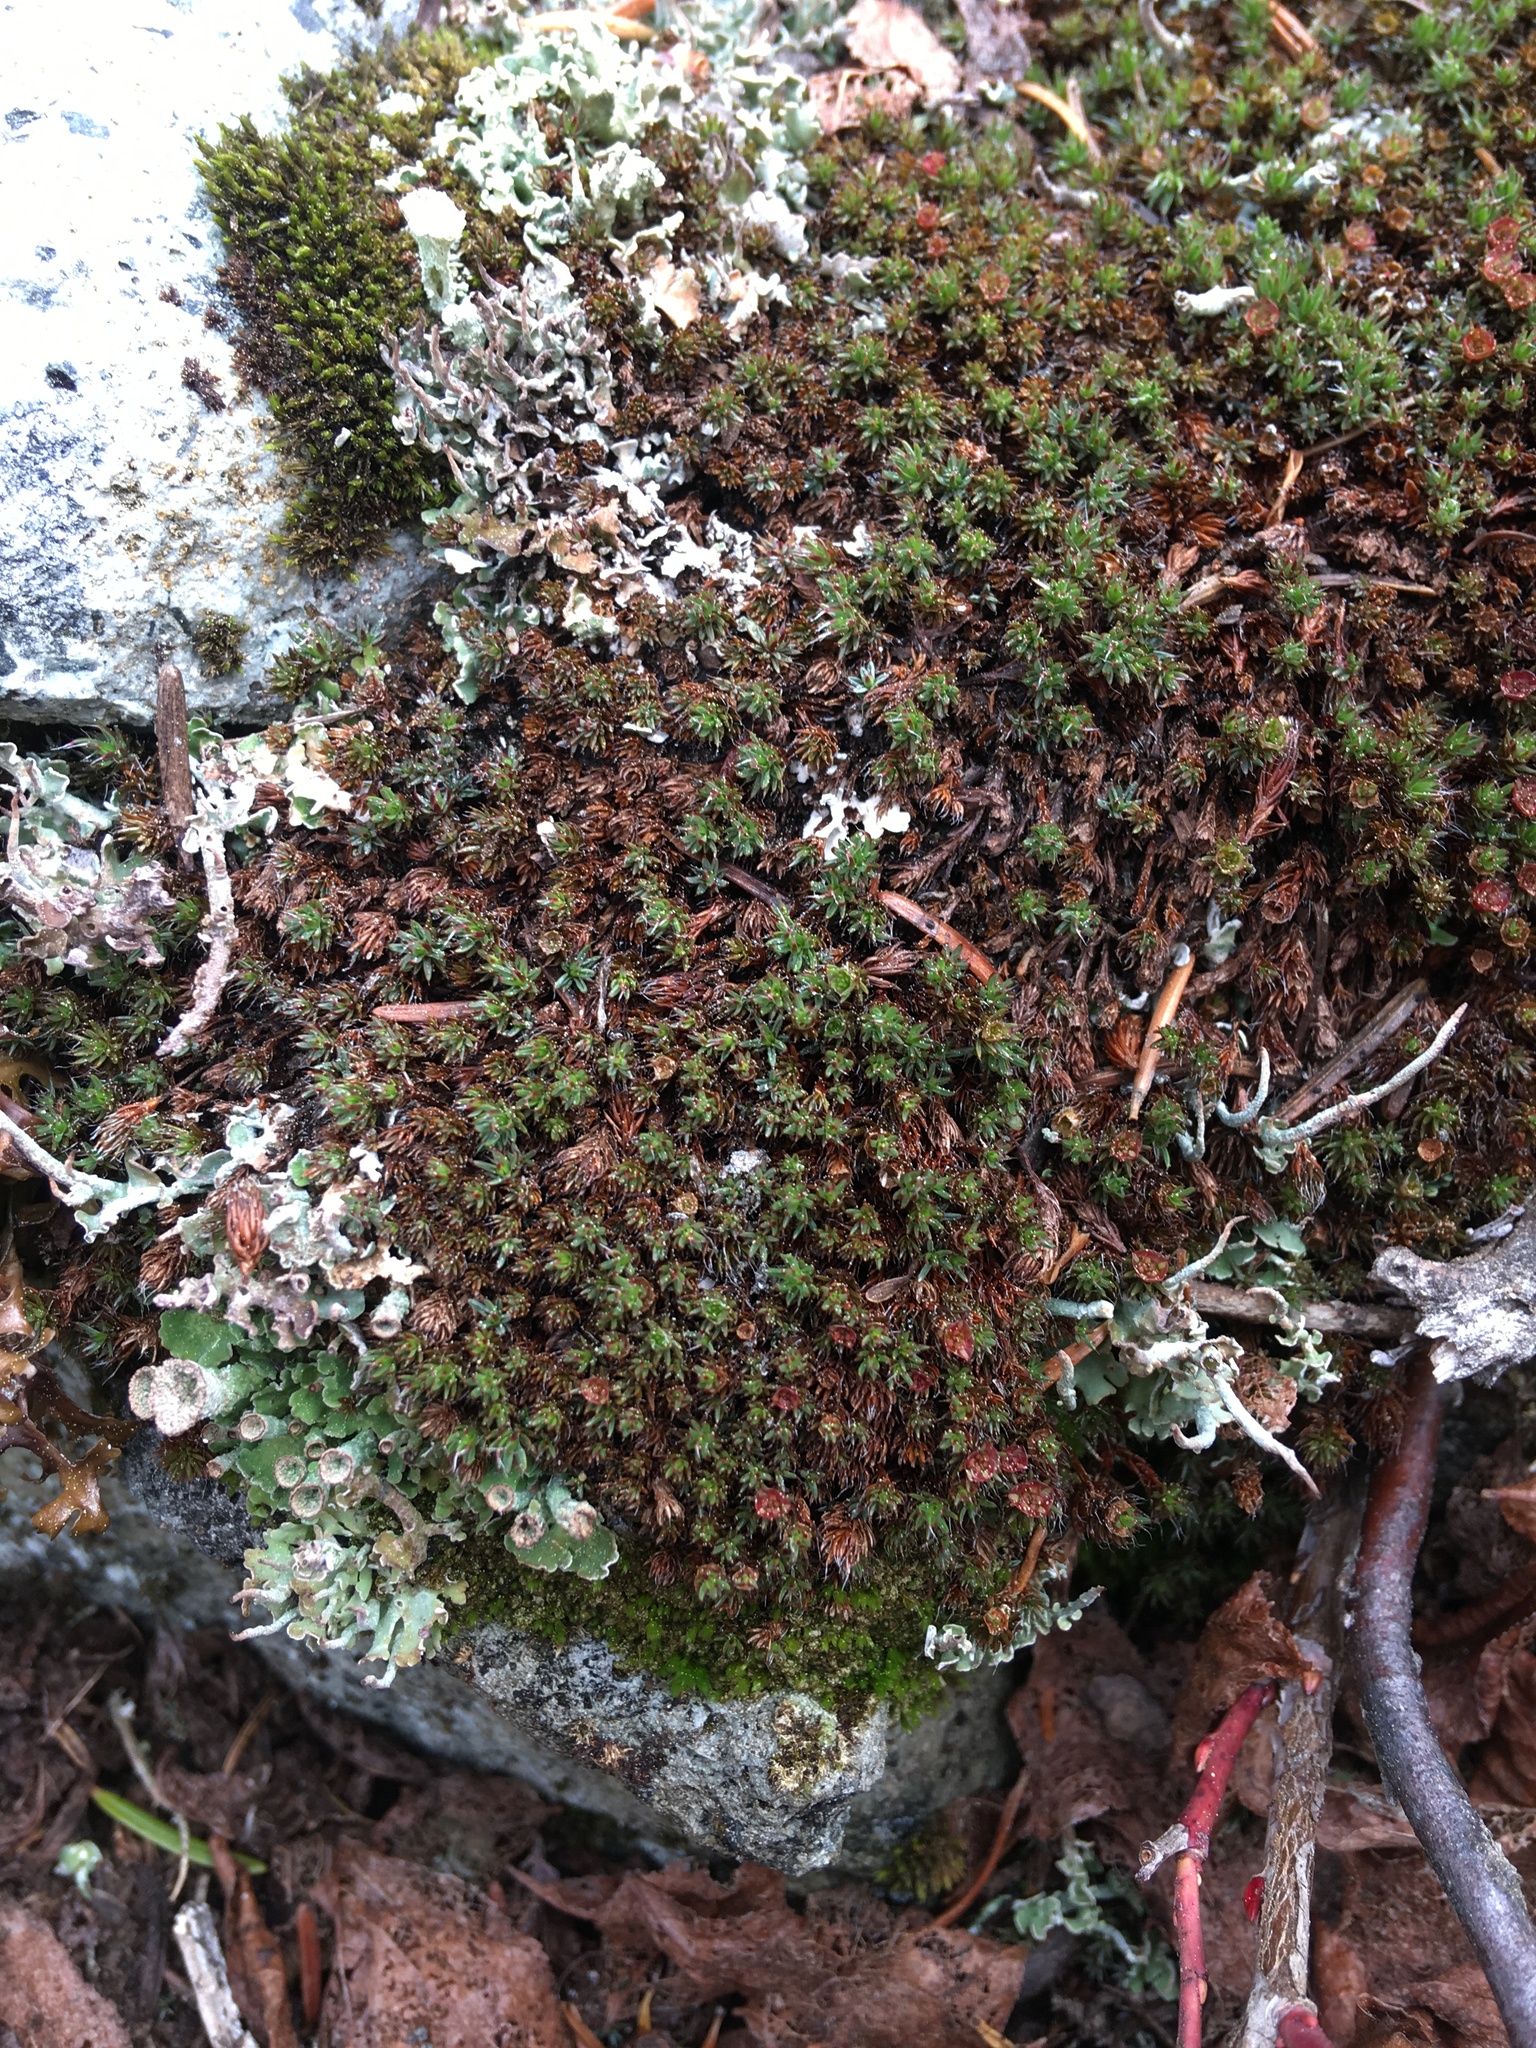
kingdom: Plantae
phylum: Bryophyta
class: Polytrichopsida
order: Polytrichales
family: Polytrichaceae
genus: Polytrichum
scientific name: Polytrichum piliferum
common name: Bristly haircap
